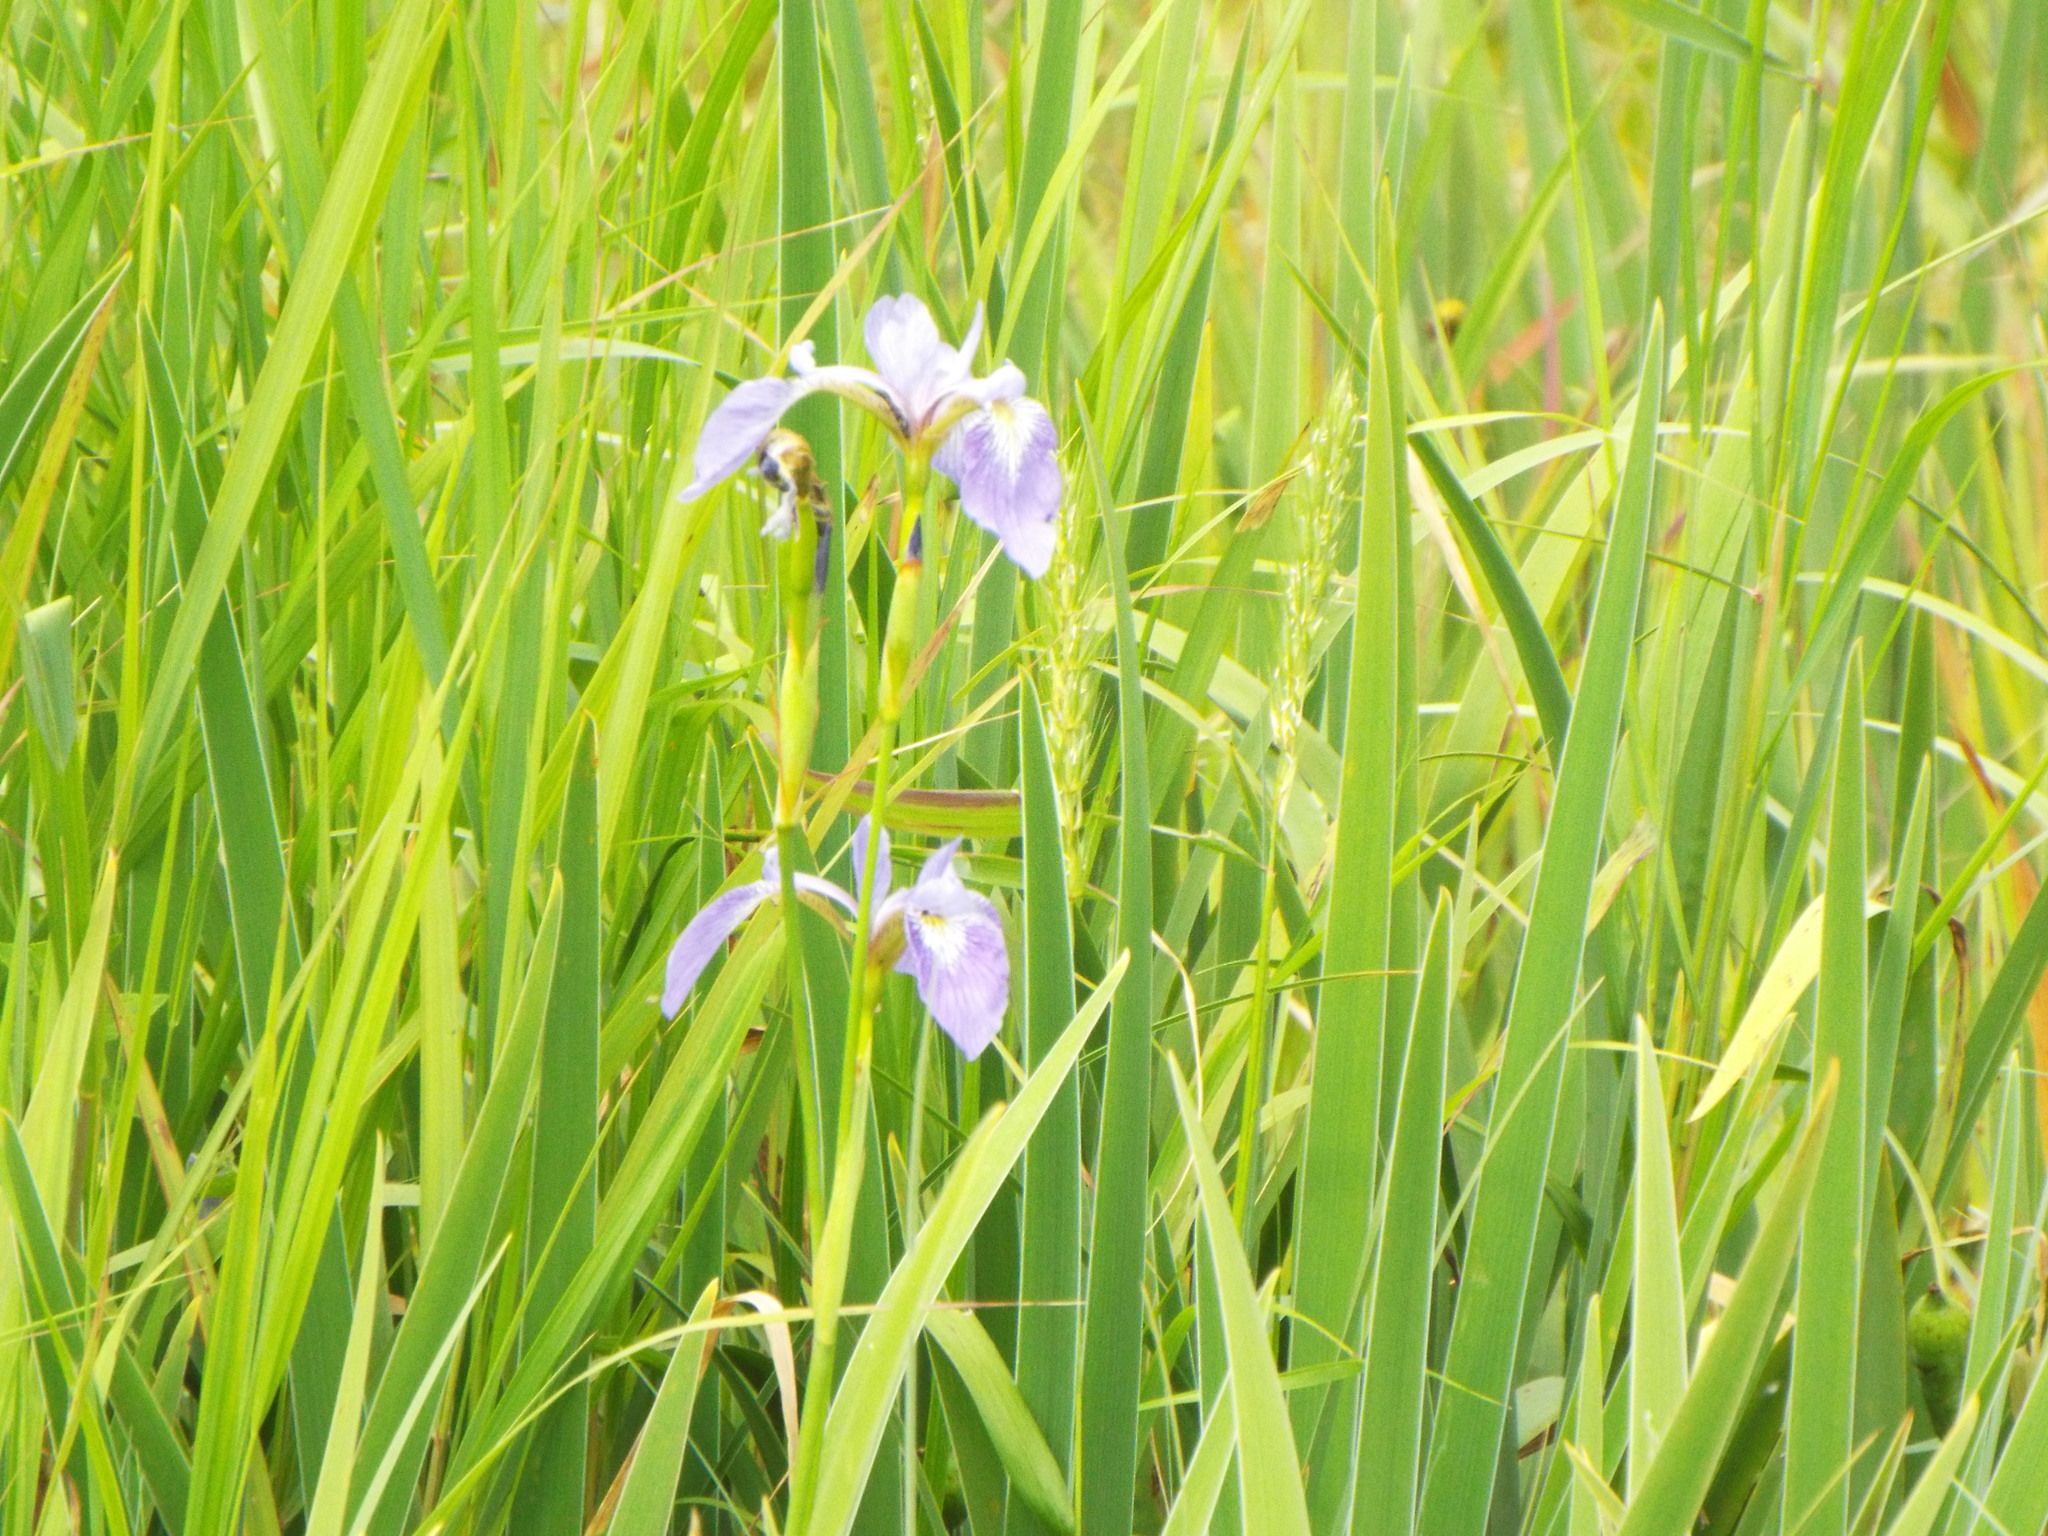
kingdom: Plantae
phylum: Tracheophyta
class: Liliopsida
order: Asparagales
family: Iridaceae
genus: Iris
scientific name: Iris versicolor
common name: Purple iris
